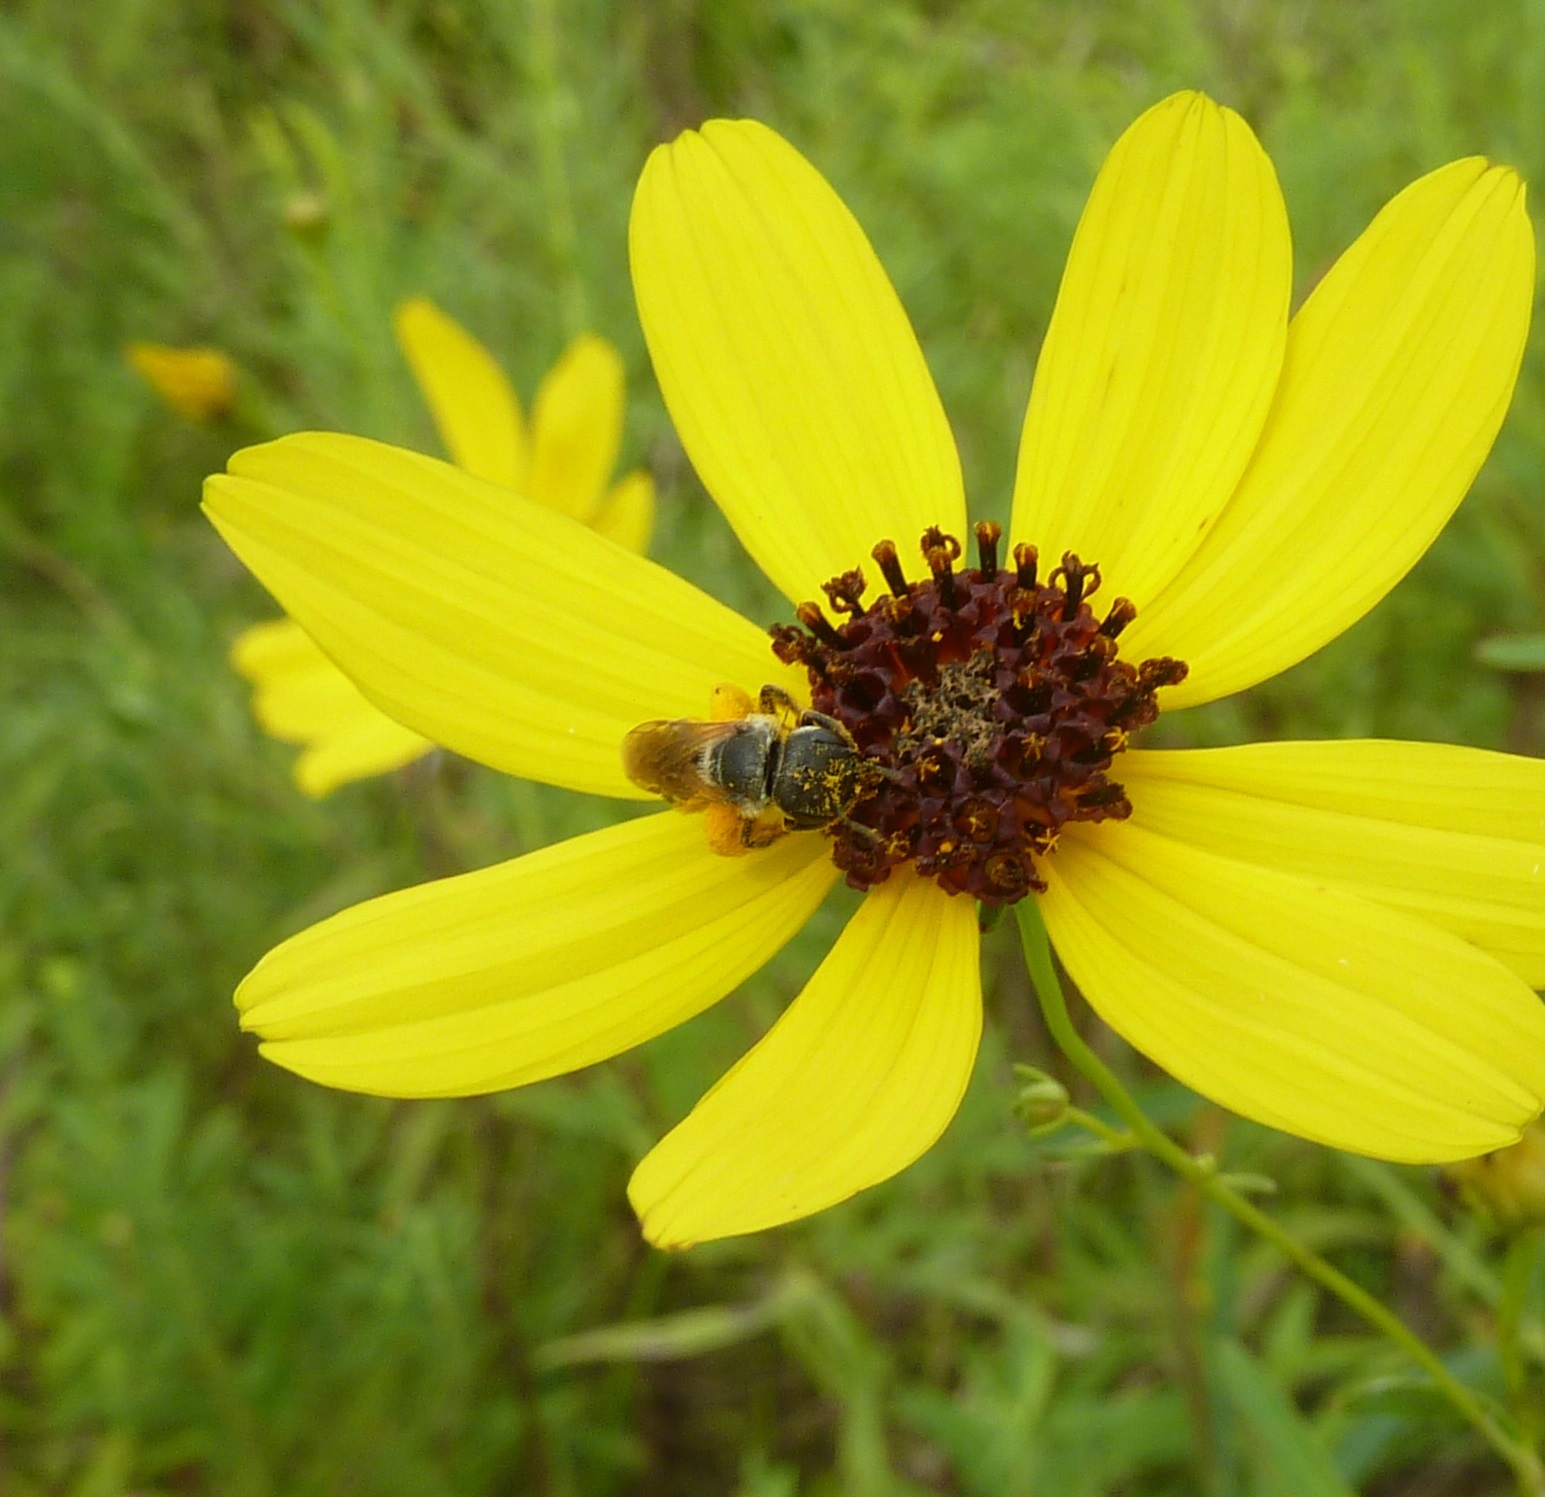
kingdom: Animalia
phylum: Arthropoda
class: Insecta
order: Hymenoptera
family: Halictidae
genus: Halictus
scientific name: Halictus ligatus
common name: Ligated furrow bee
